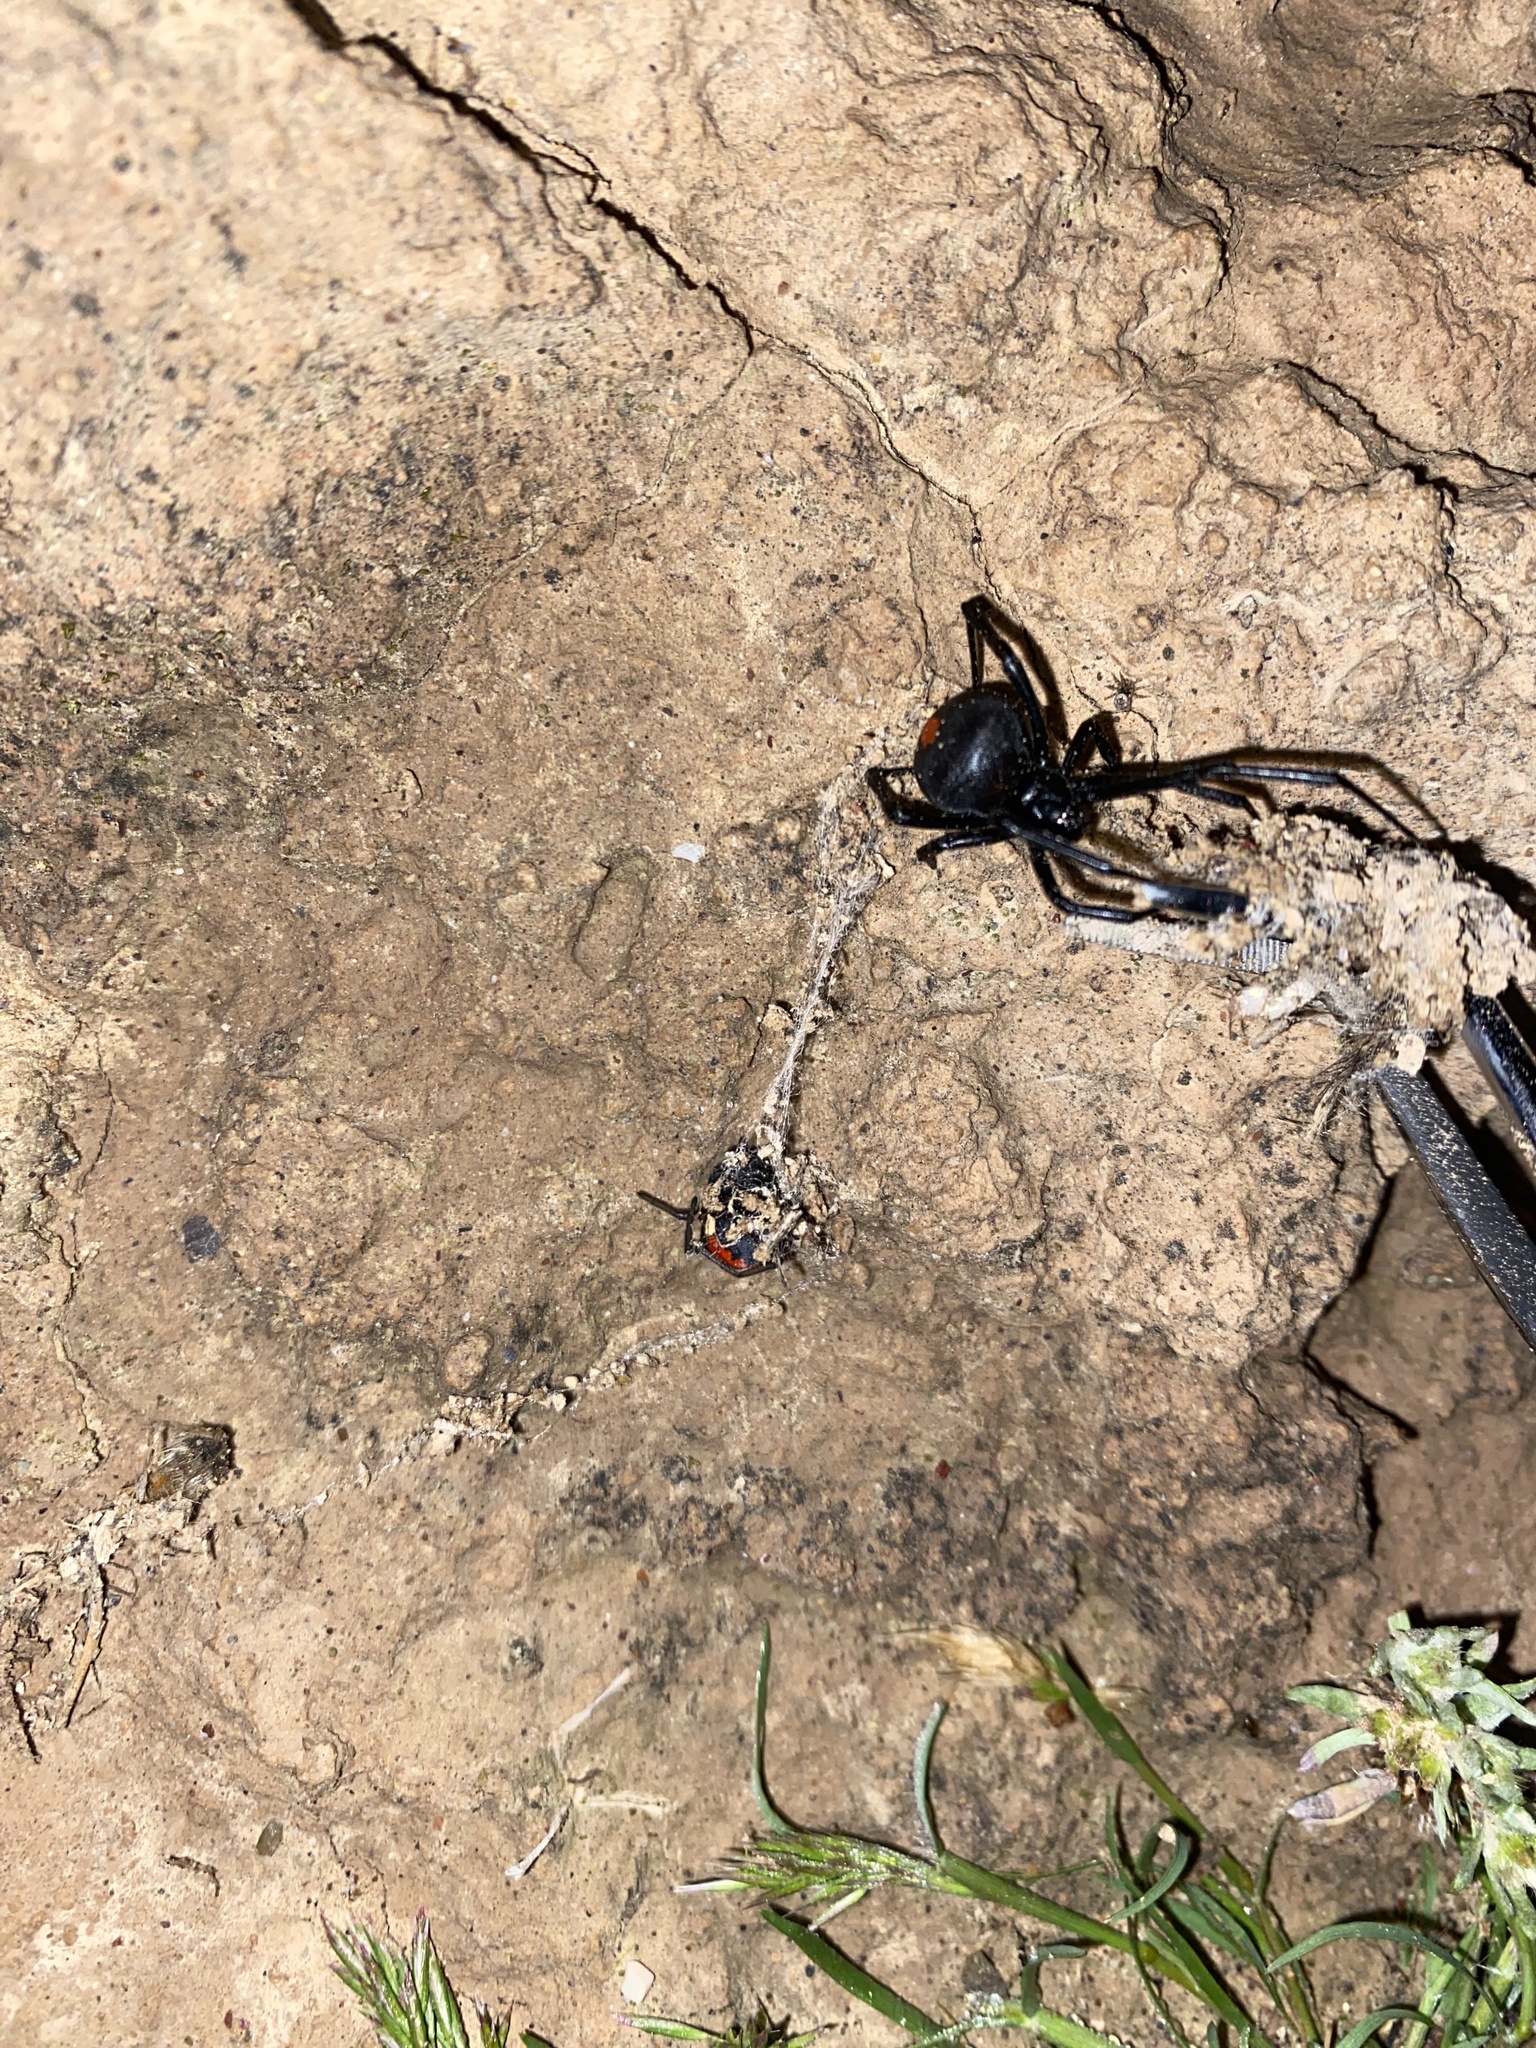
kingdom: Animalia
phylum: Arthropoda
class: Arachnida
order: Araneae
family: Theridiidae
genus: Latrodectus
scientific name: Latrodectus cinctus
